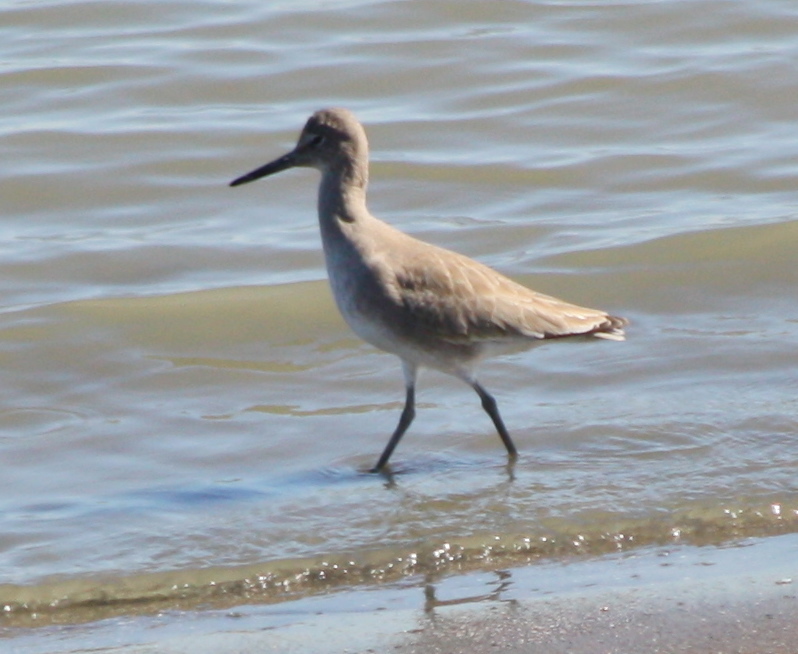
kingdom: Animalia
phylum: Chordata
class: Aves
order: Charadriiformes
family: Scolopacidae
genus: Tringa
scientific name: Tringa semipalmata
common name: Willet
